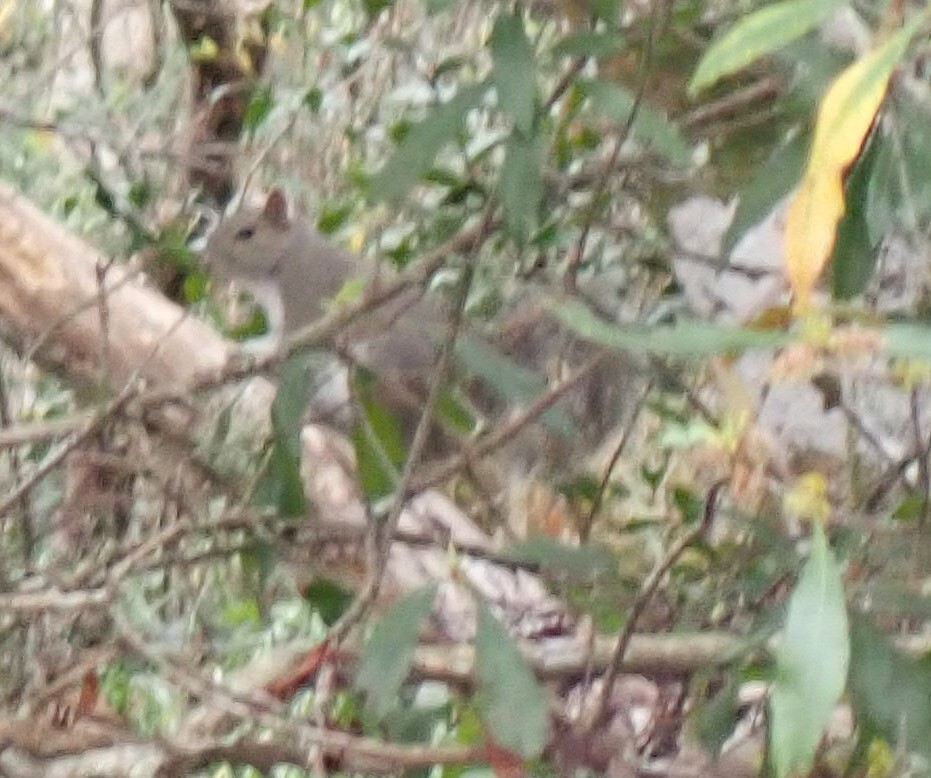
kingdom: Animalia
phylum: Chordata
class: Mammalia
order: Rodentia
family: Sciuridae
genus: Sciurus
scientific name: Sciurus carolinensis
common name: Eastern gray squirrel
